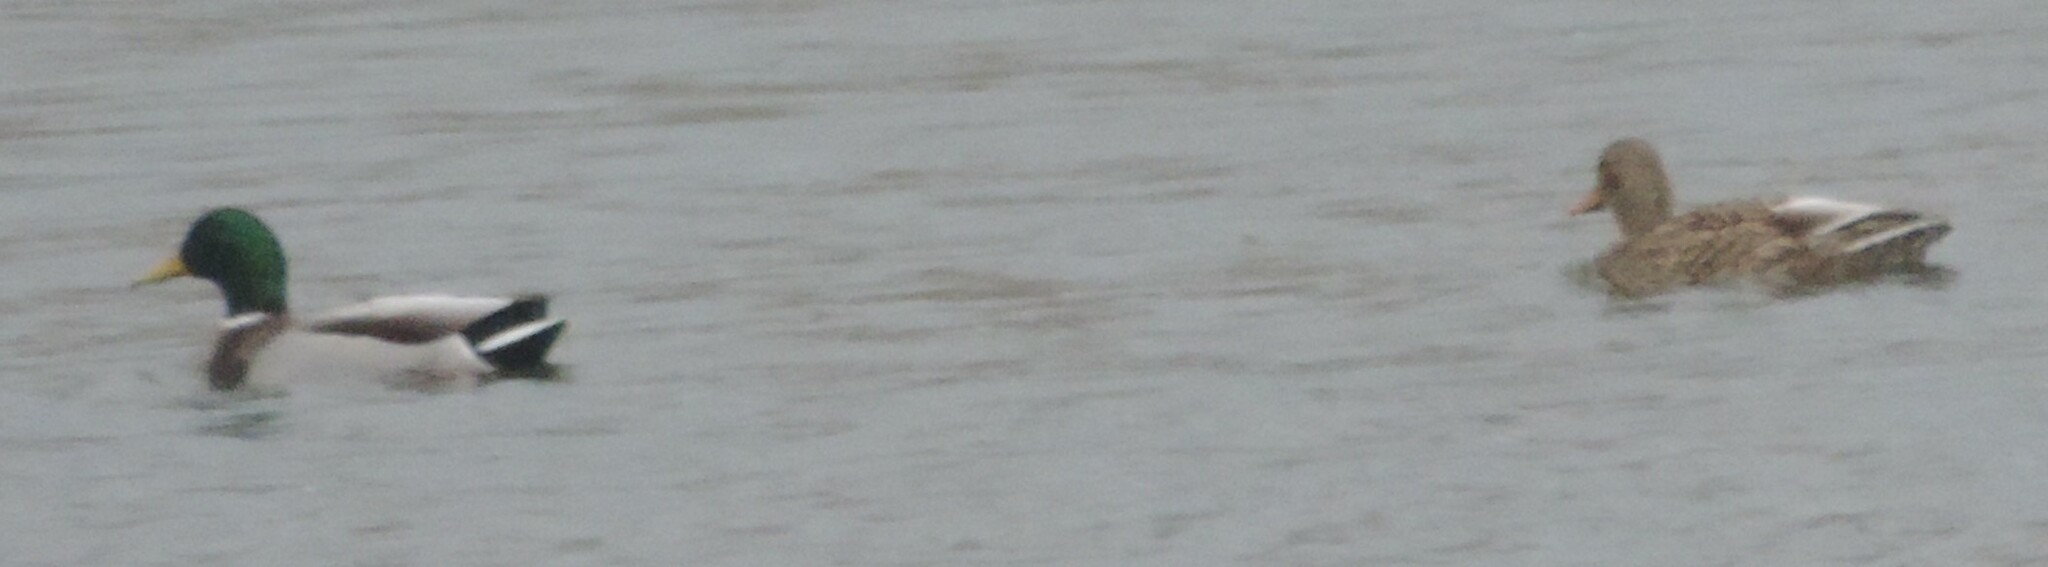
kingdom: Animalia
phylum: Chordata
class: Aves
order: Anseriformes
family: Anatidae
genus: Anas
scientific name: Anas platyrhynchos
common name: Mallard
